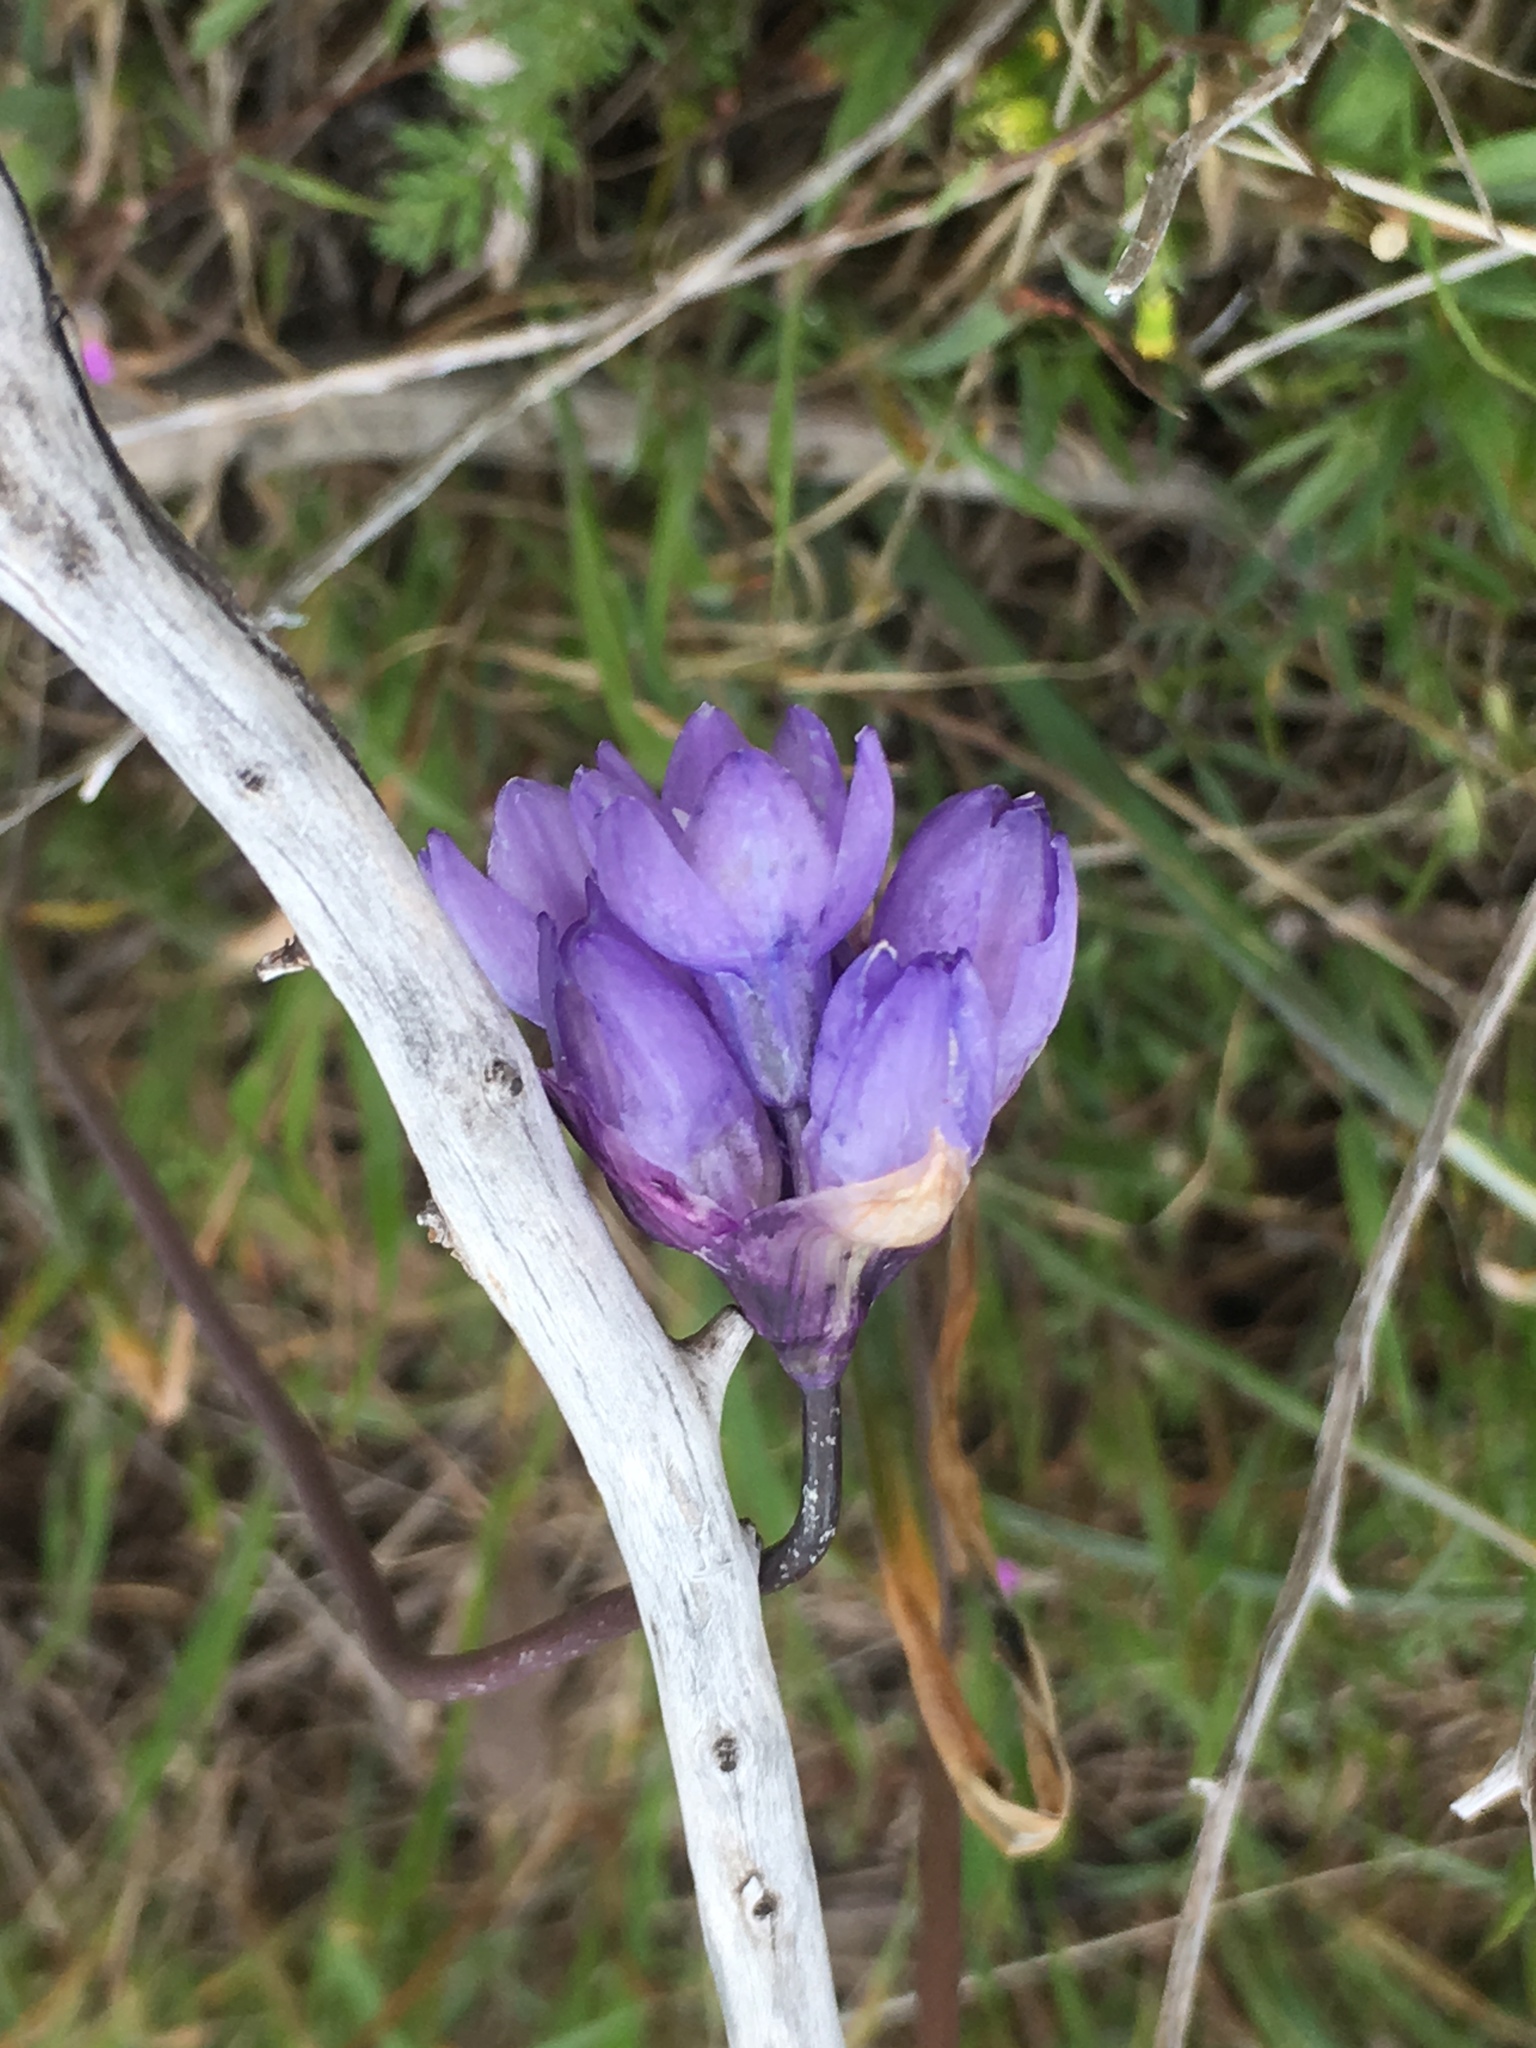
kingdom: Plantae
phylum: Tracheophyta
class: Liliopsida
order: Asparagales
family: Asparagaceae
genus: Dipterostemon
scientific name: Dipterostemon capitatus
